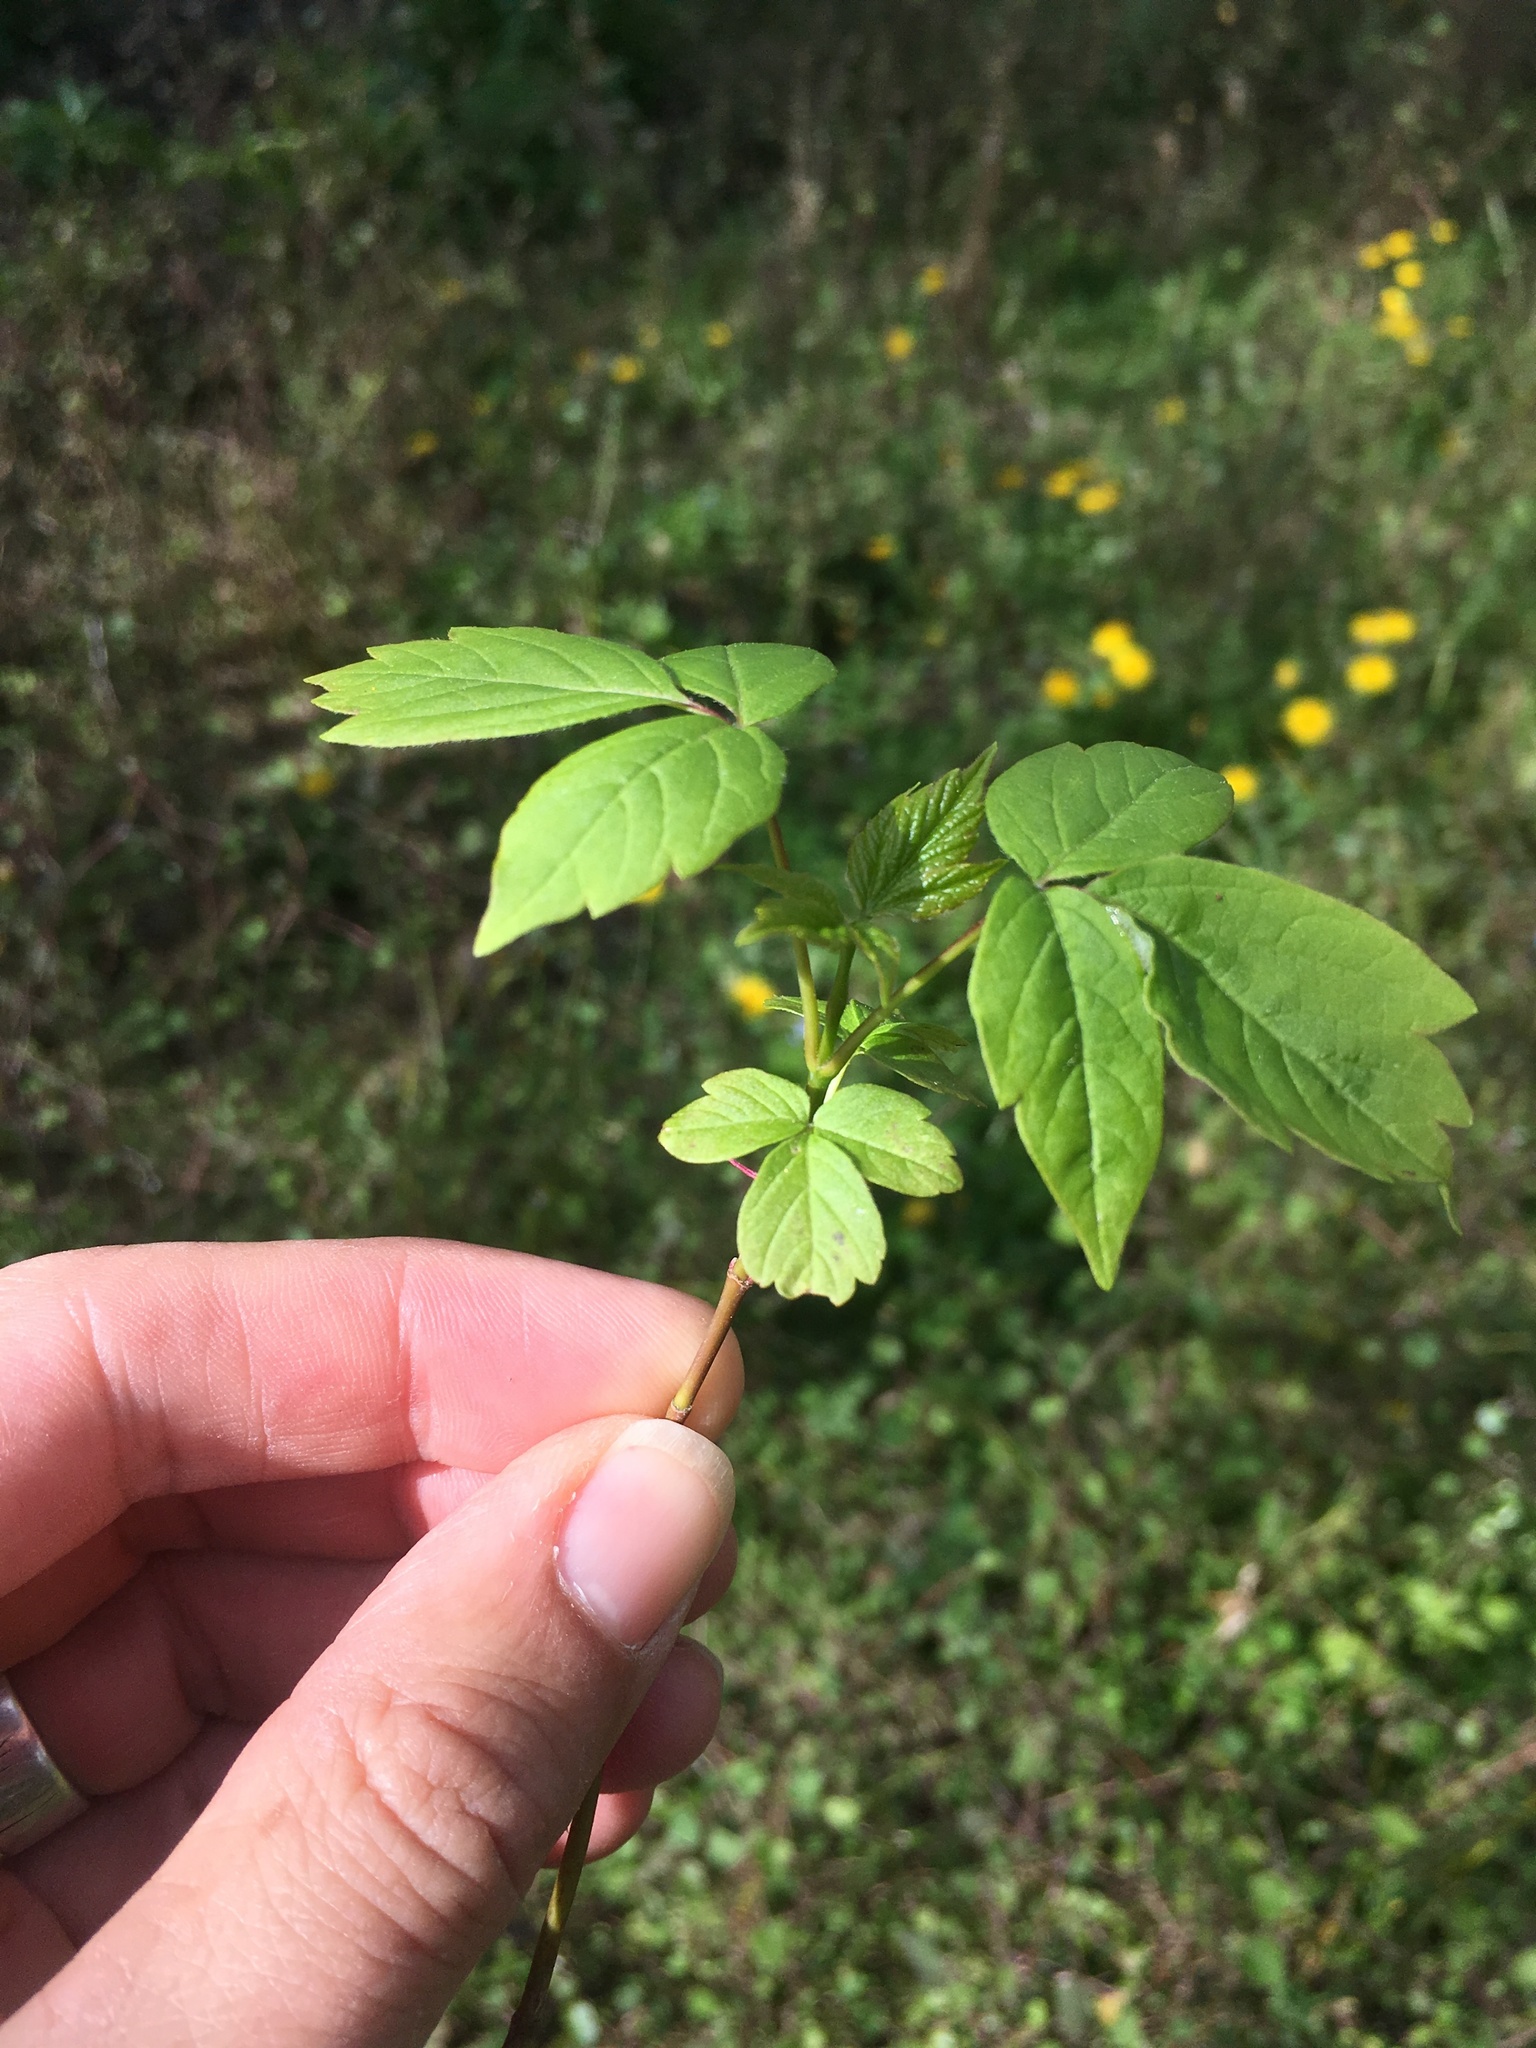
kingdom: Plantae
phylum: Tracheophyta
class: Magnoliopsida
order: Sapindales
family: Sapindaceae
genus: Acer
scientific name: Acer negundo
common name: Ashleaf maple
